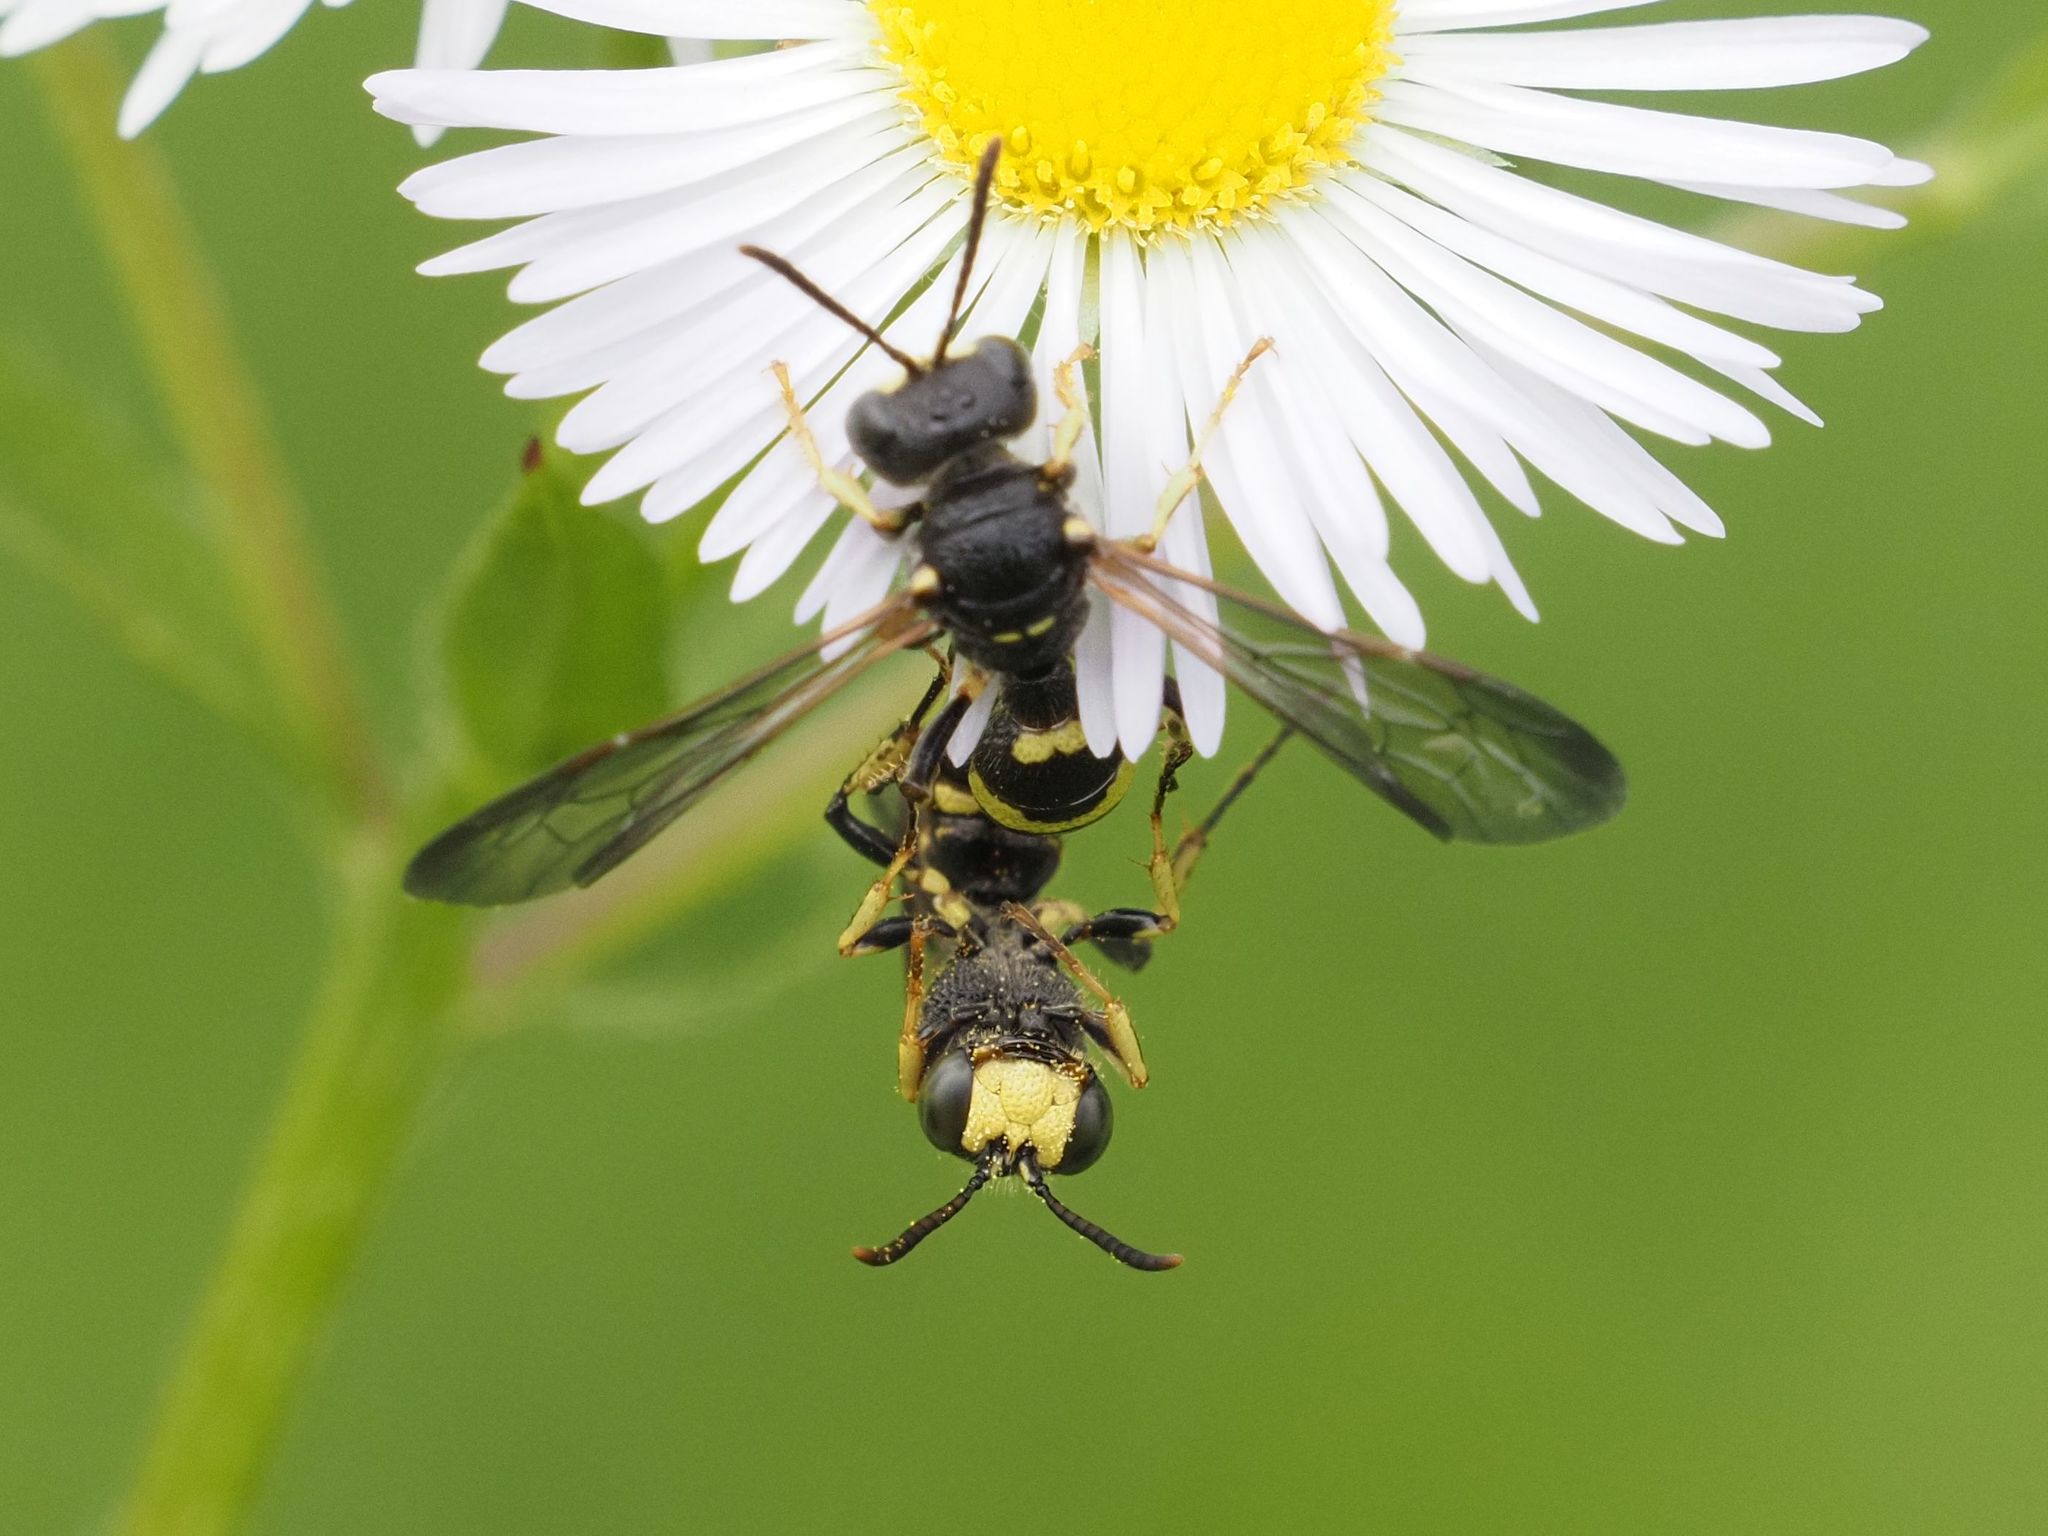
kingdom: Animalia
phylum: Arthropoda
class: Insecta
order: Hymenoptera
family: Crabronidae
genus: Cerceris
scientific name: Cerceris hortivaga
